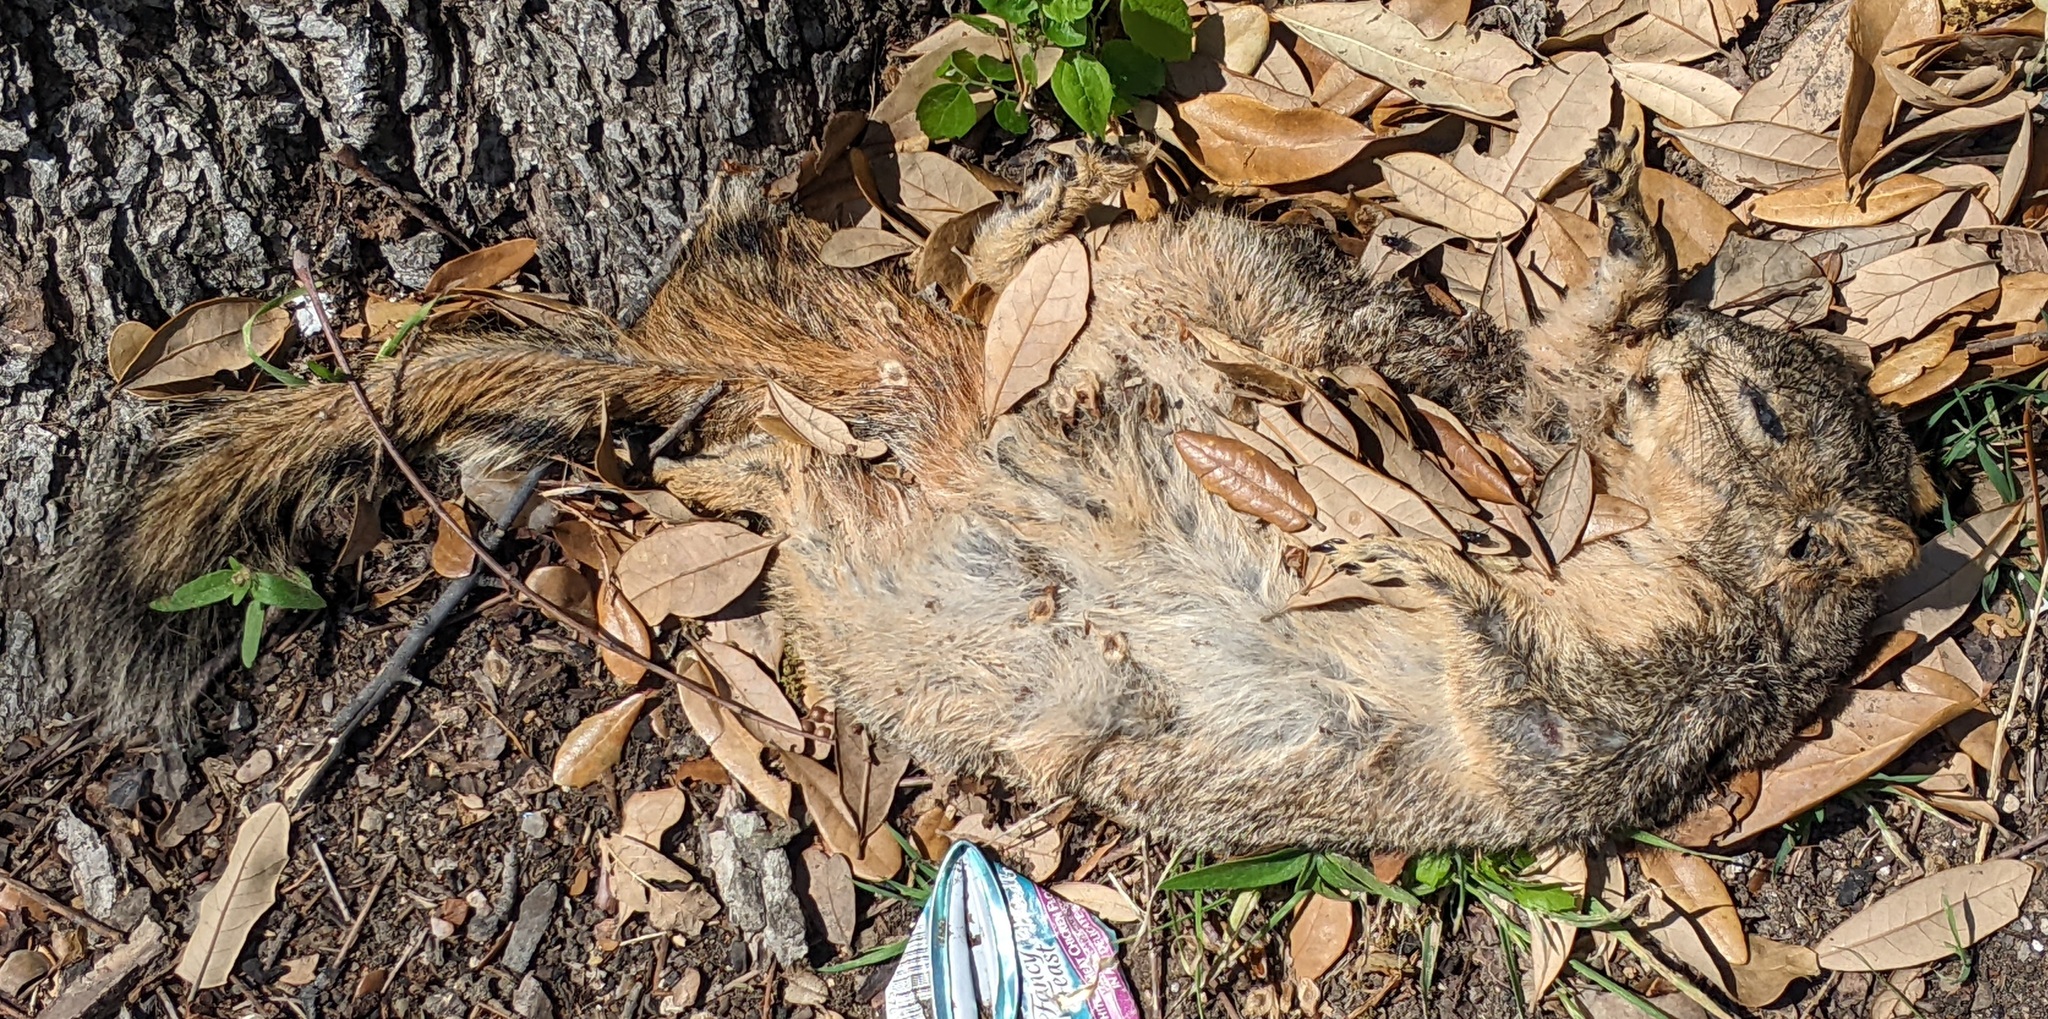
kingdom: Animalia
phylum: Chordata
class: Mammalia
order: Rodentia
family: Sciuridae
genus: Sciurus
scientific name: Sciurus niger
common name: Fox squirrel
